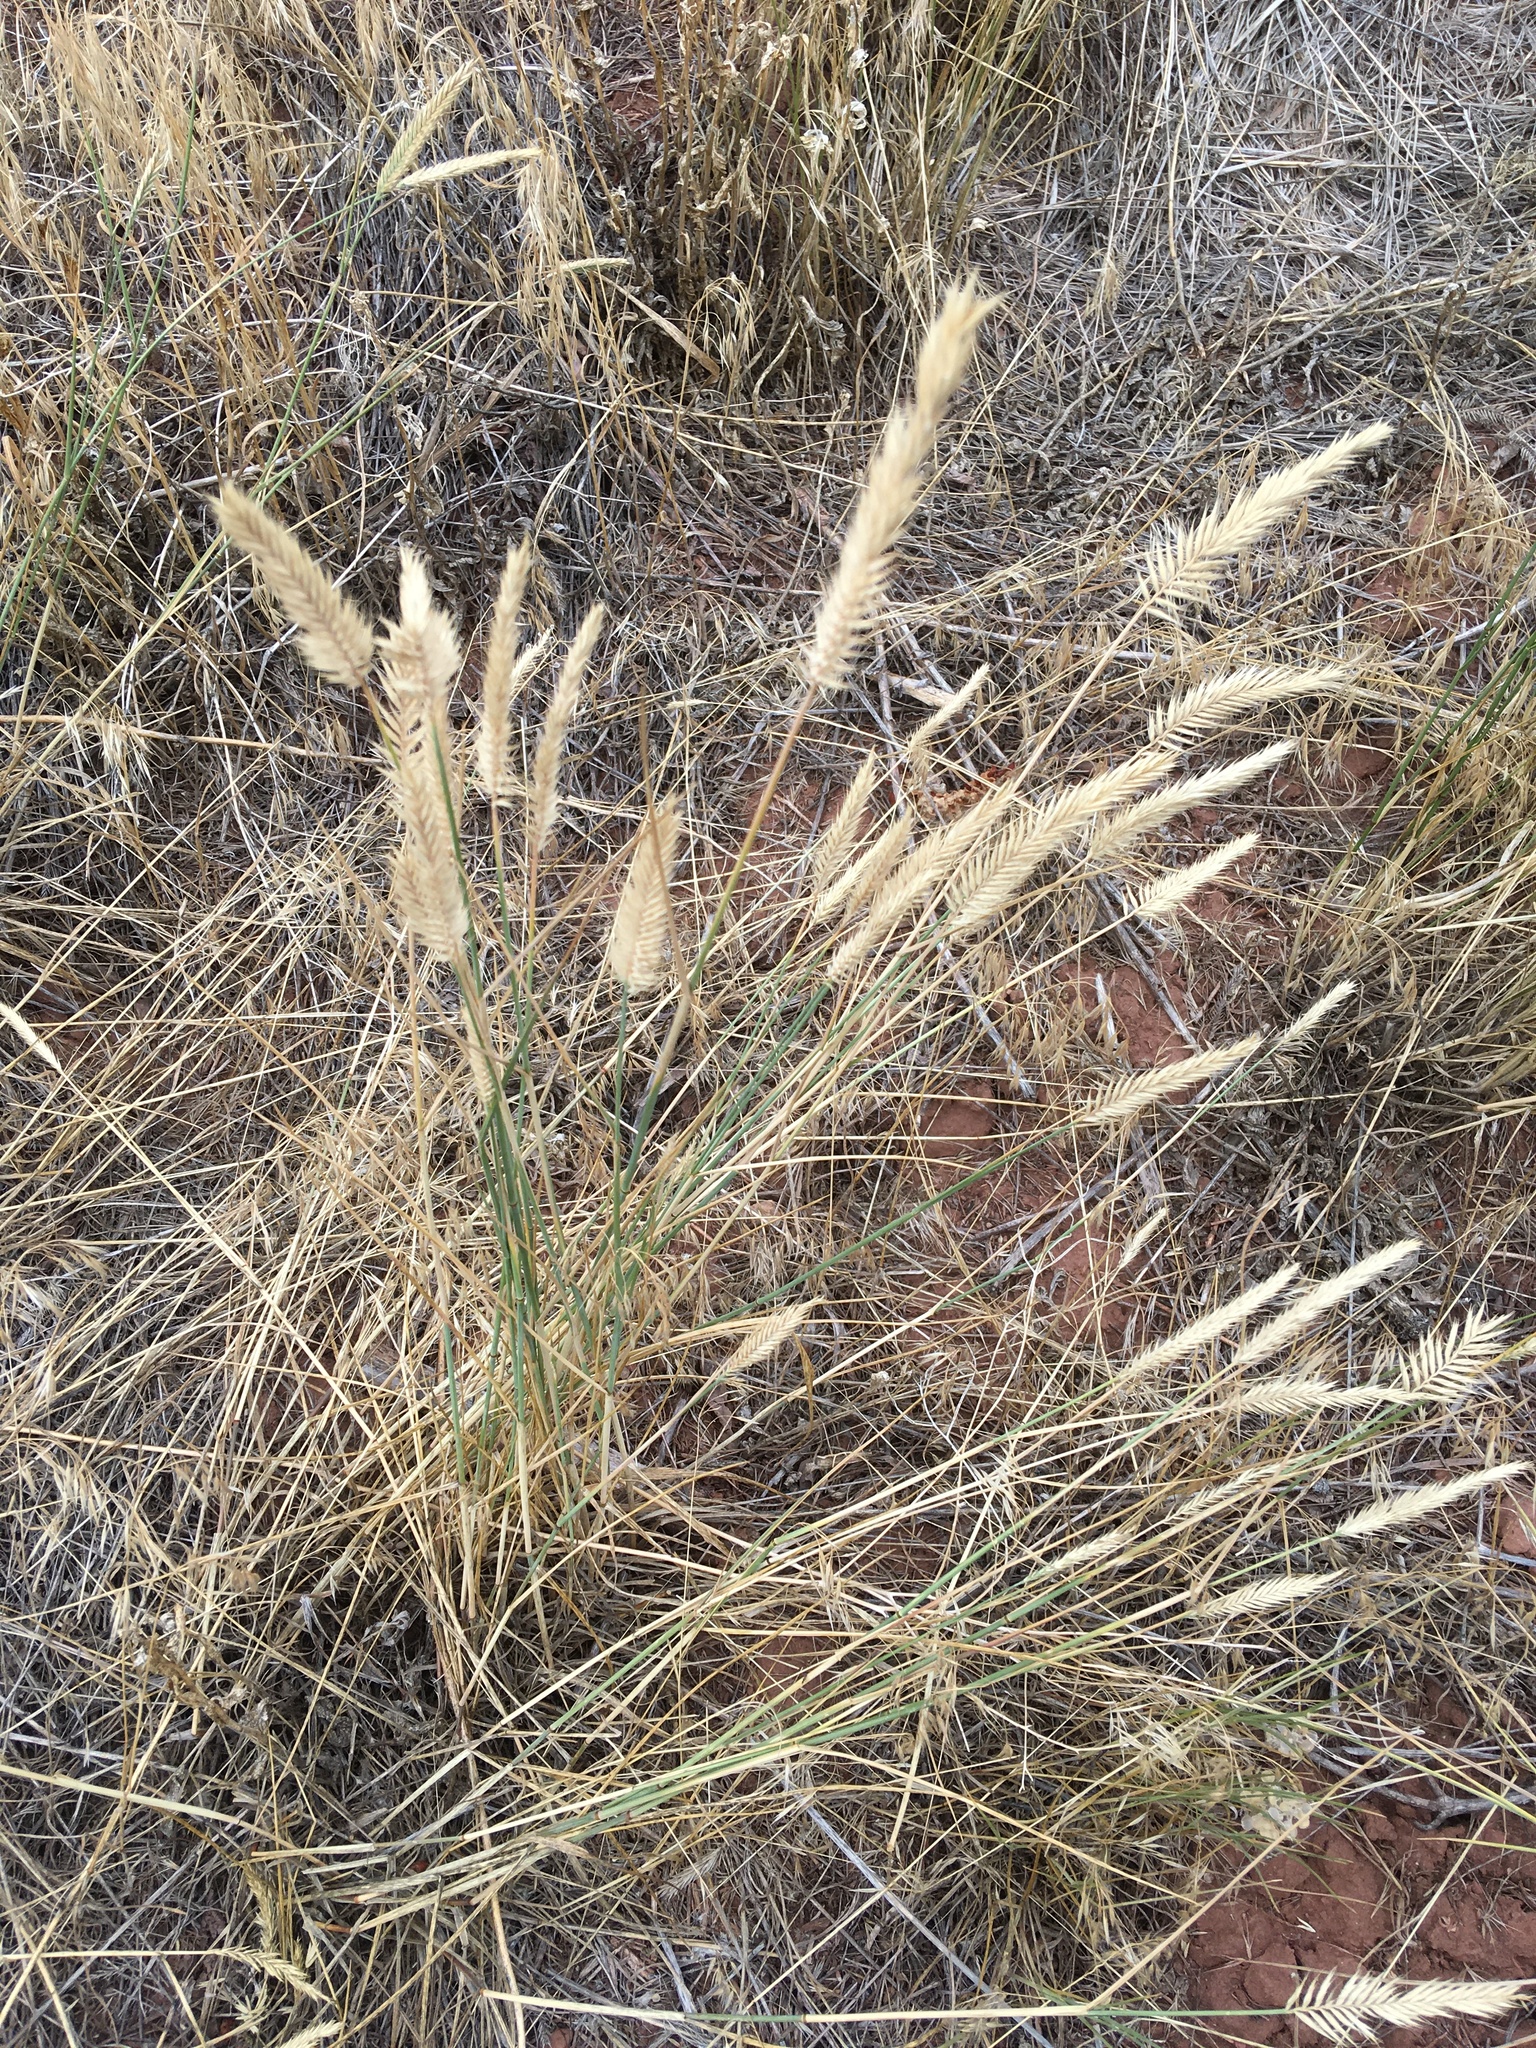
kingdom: Plantae
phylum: Tracheophyta
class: Liliopsida
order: Poales
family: Poaceae
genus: Agropyron
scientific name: Agropyron cristatum
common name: Crested wheatgrass
